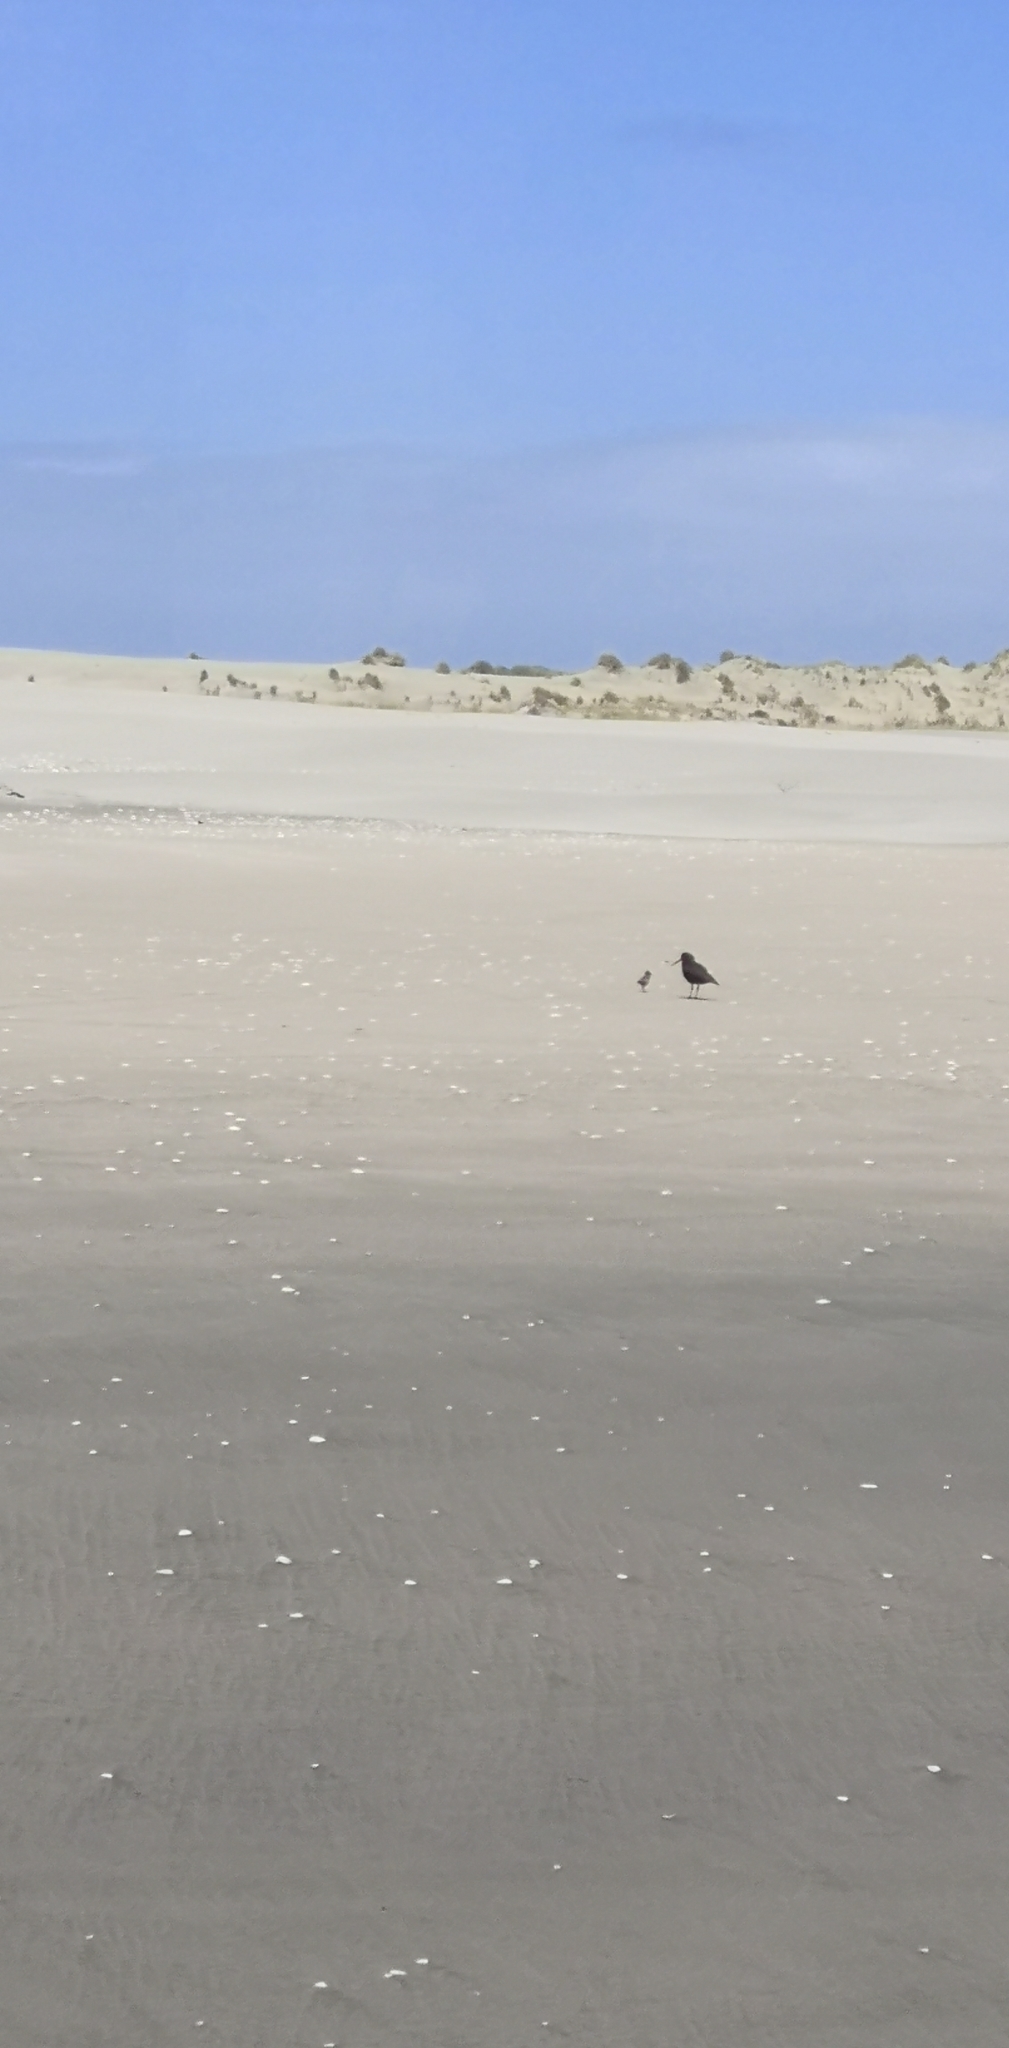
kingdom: Animalia
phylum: Chordata
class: Aves
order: Charadriiformes
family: Haematopodidae
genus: Haematopus
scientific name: Haematopus unicolor
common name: Variable oystercatcher
